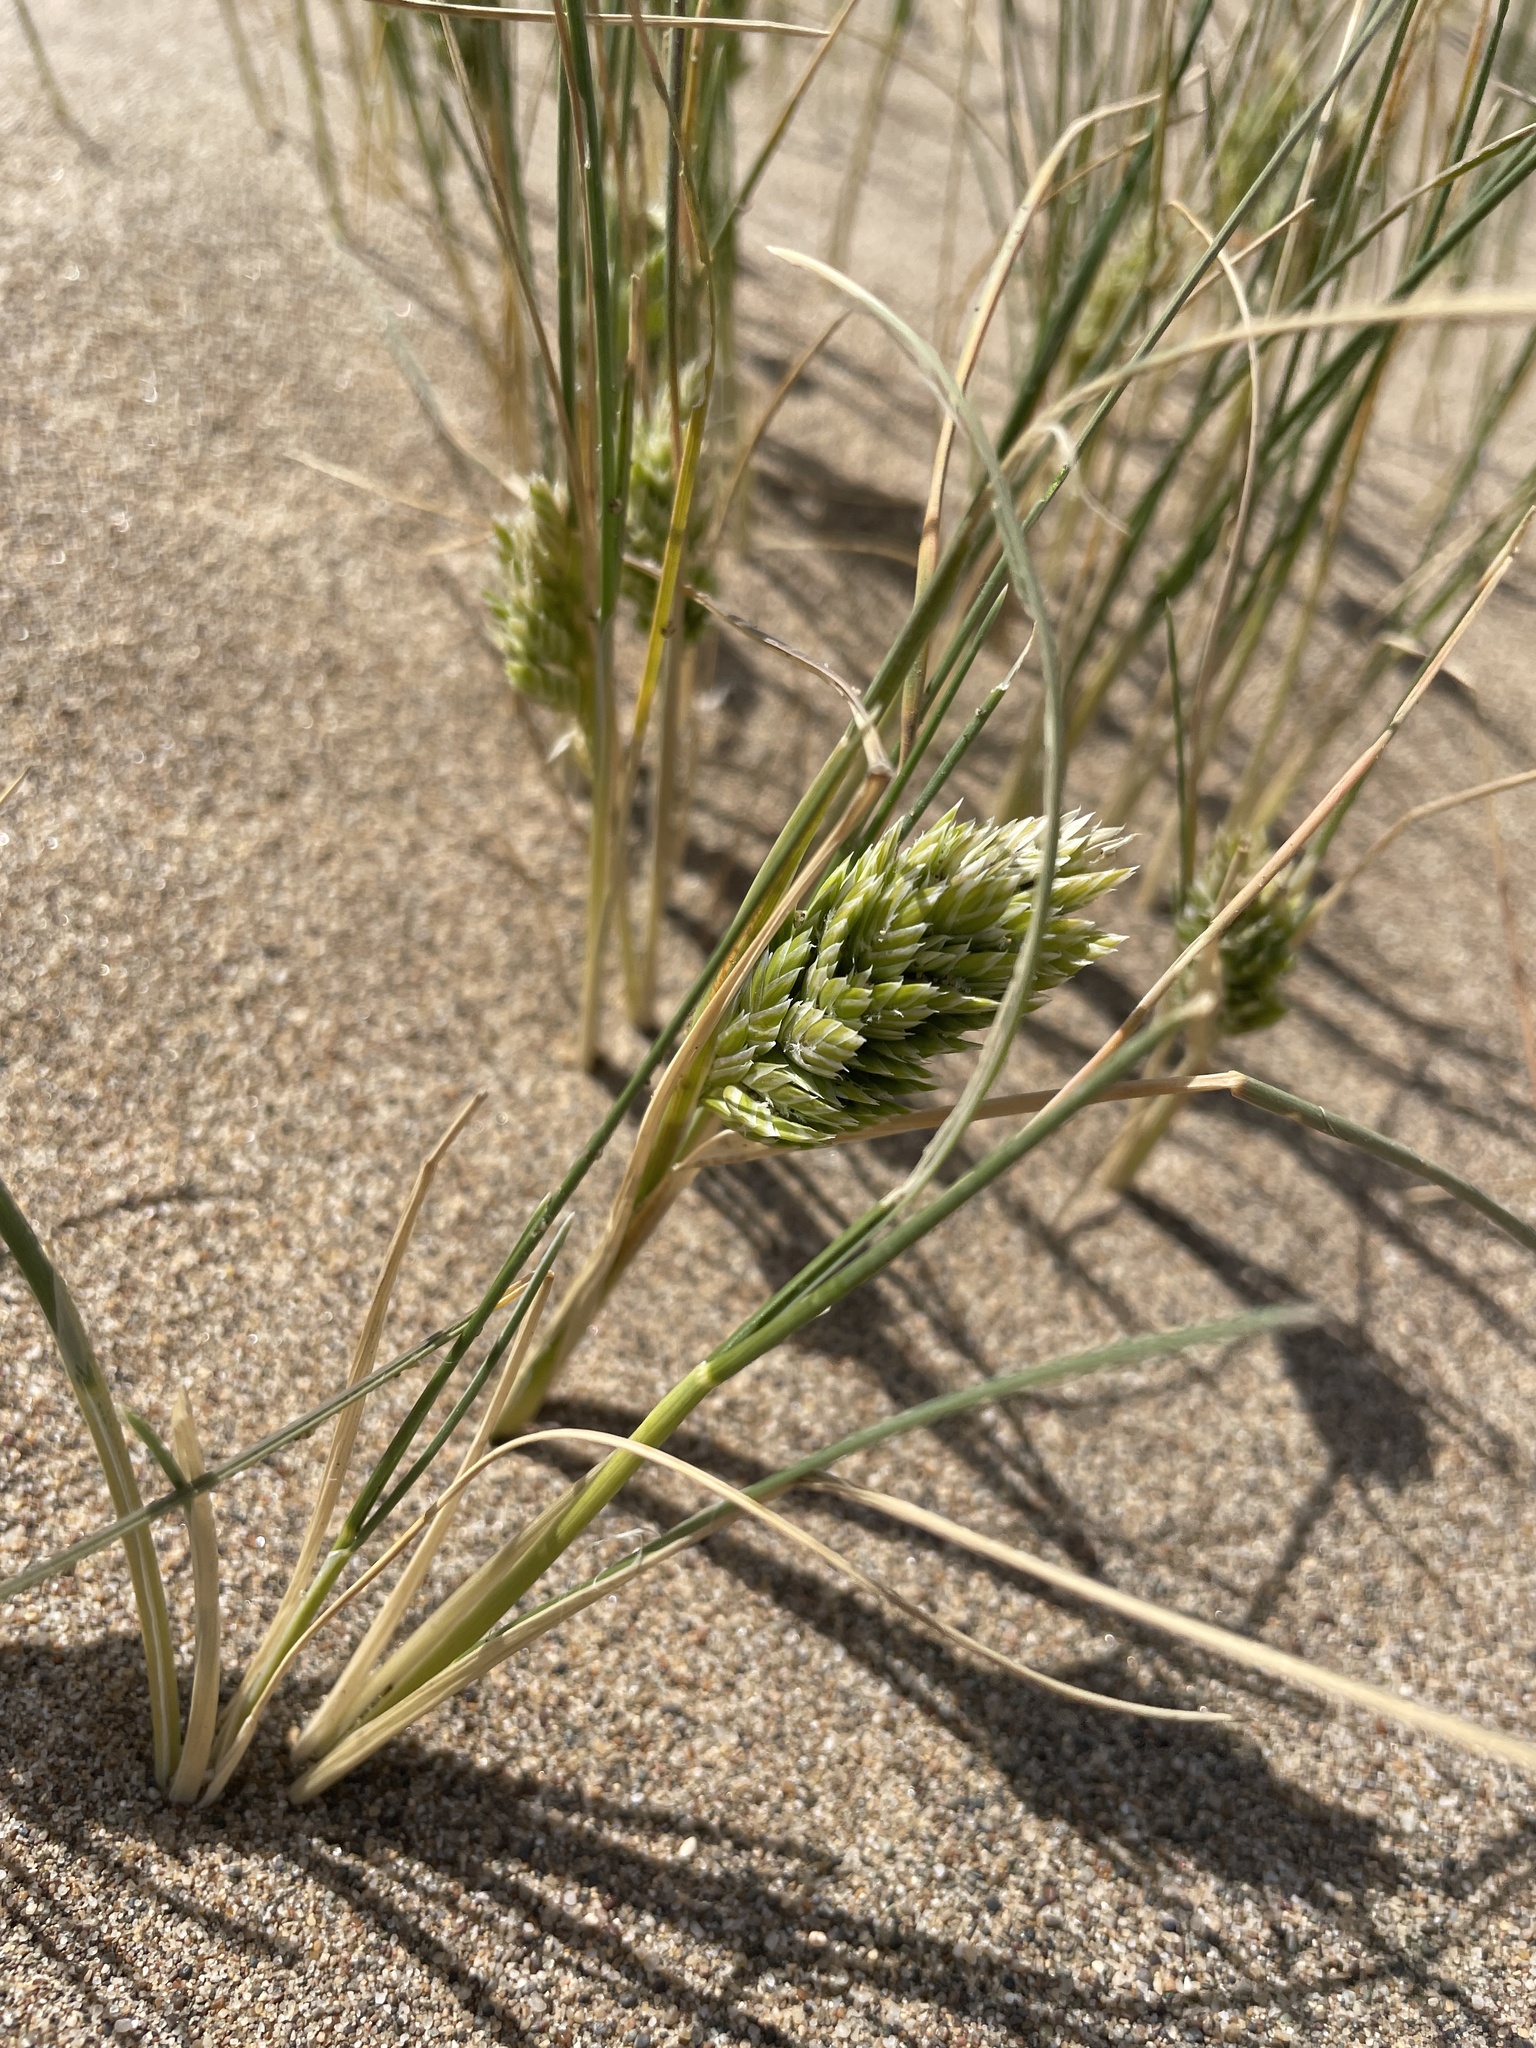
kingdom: Plantae
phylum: Tracheophyta
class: Liliopsida
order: Poales
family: Poaceae
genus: Poa
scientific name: Poa douglasii
